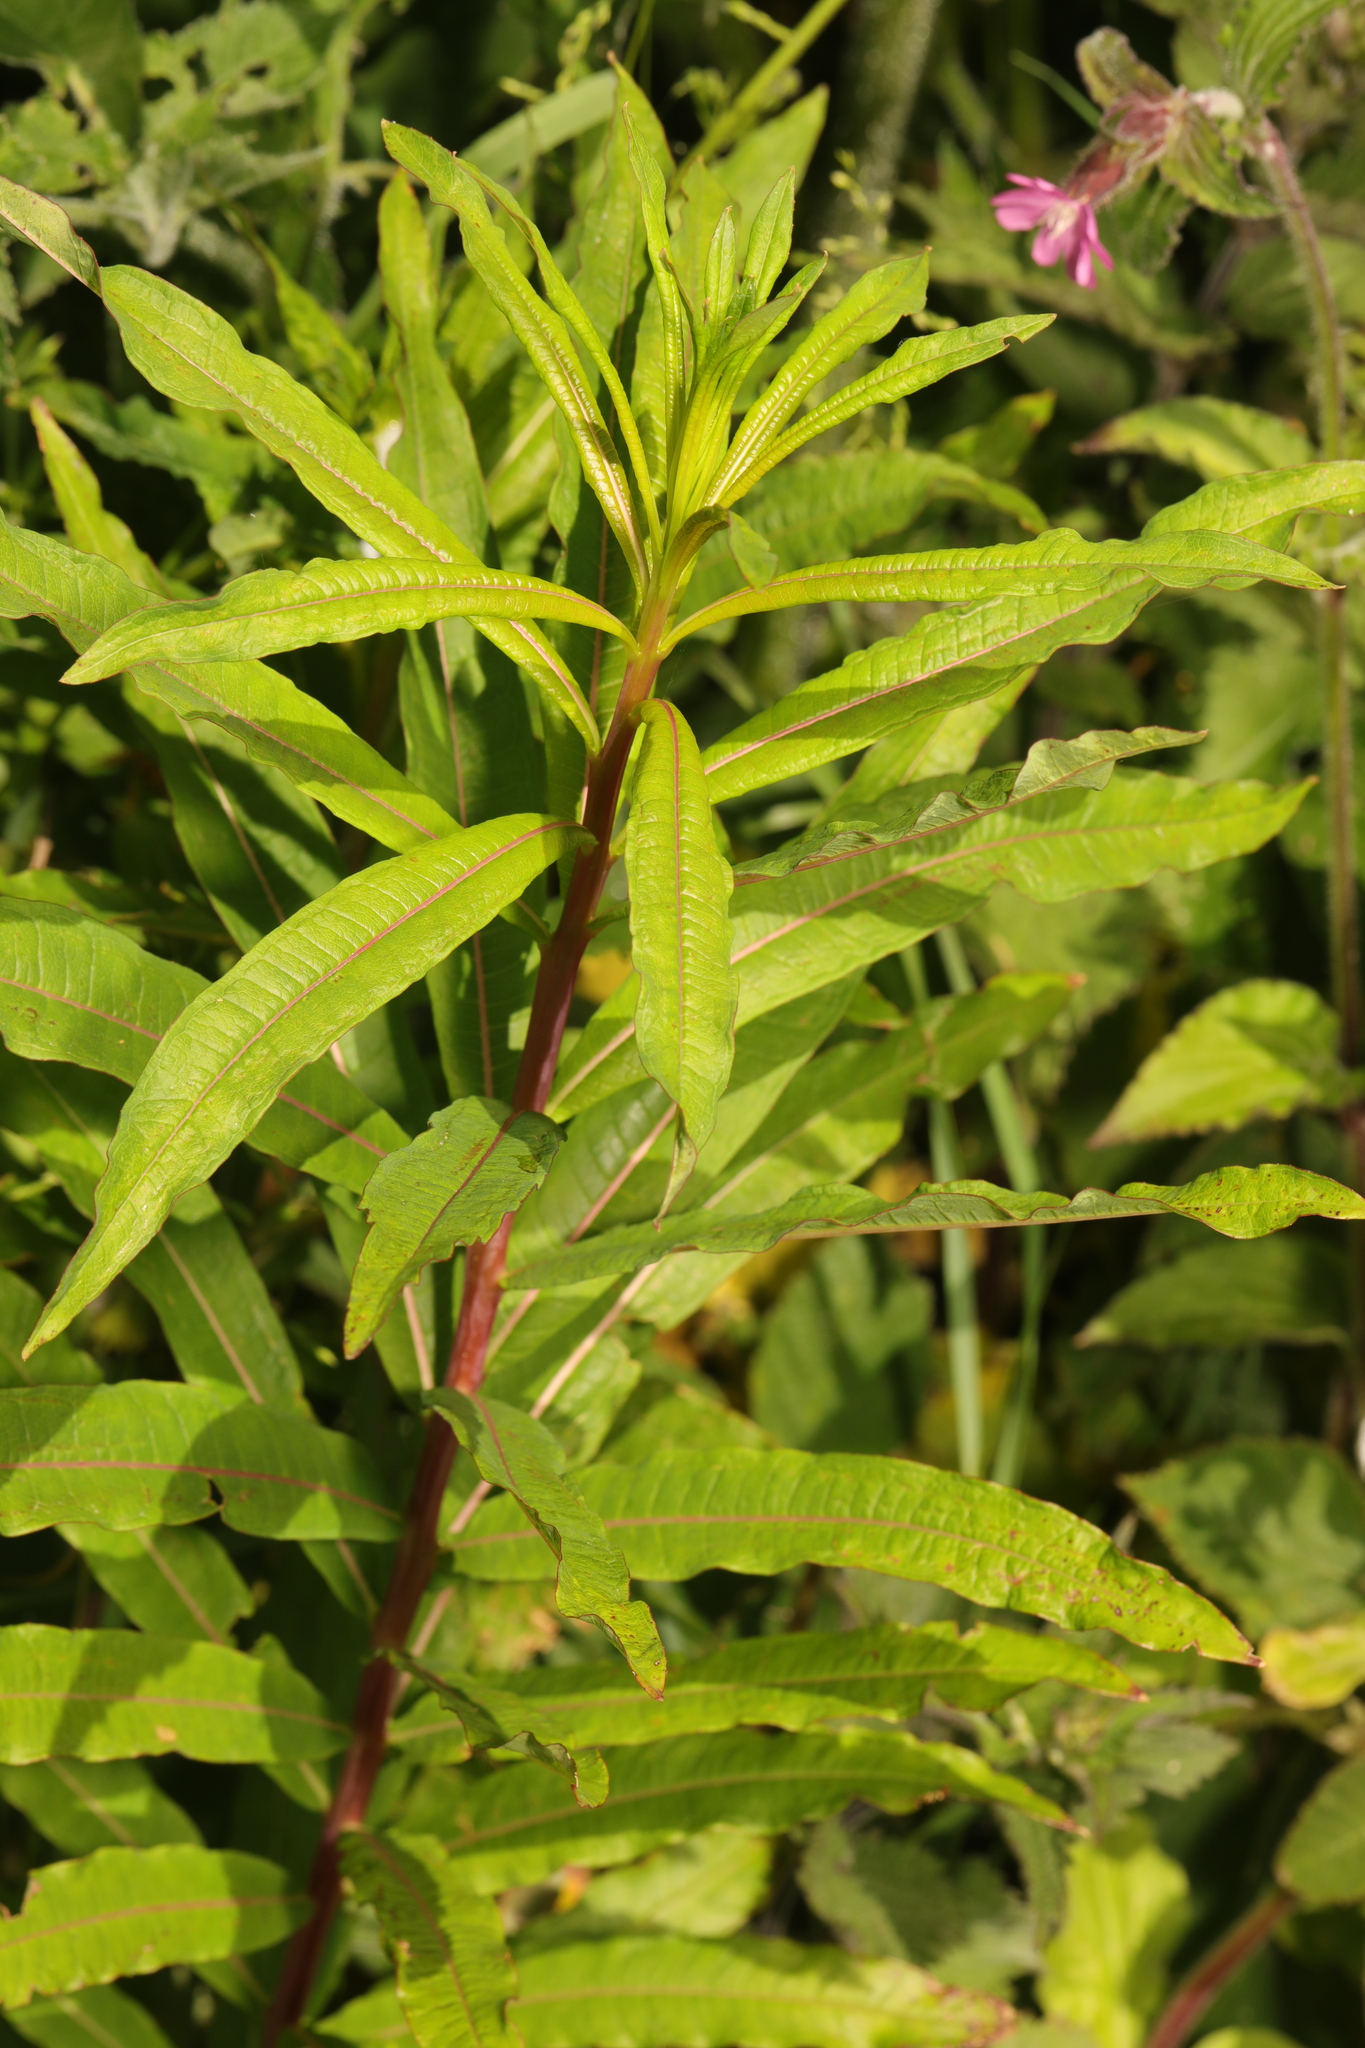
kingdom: Plantae
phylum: Tracheophyta
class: Magnoliopsida
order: Myrtales
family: Onagraceae
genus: Chamaenerion
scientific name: Chamaenerion angustifolium
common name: Fireweed
